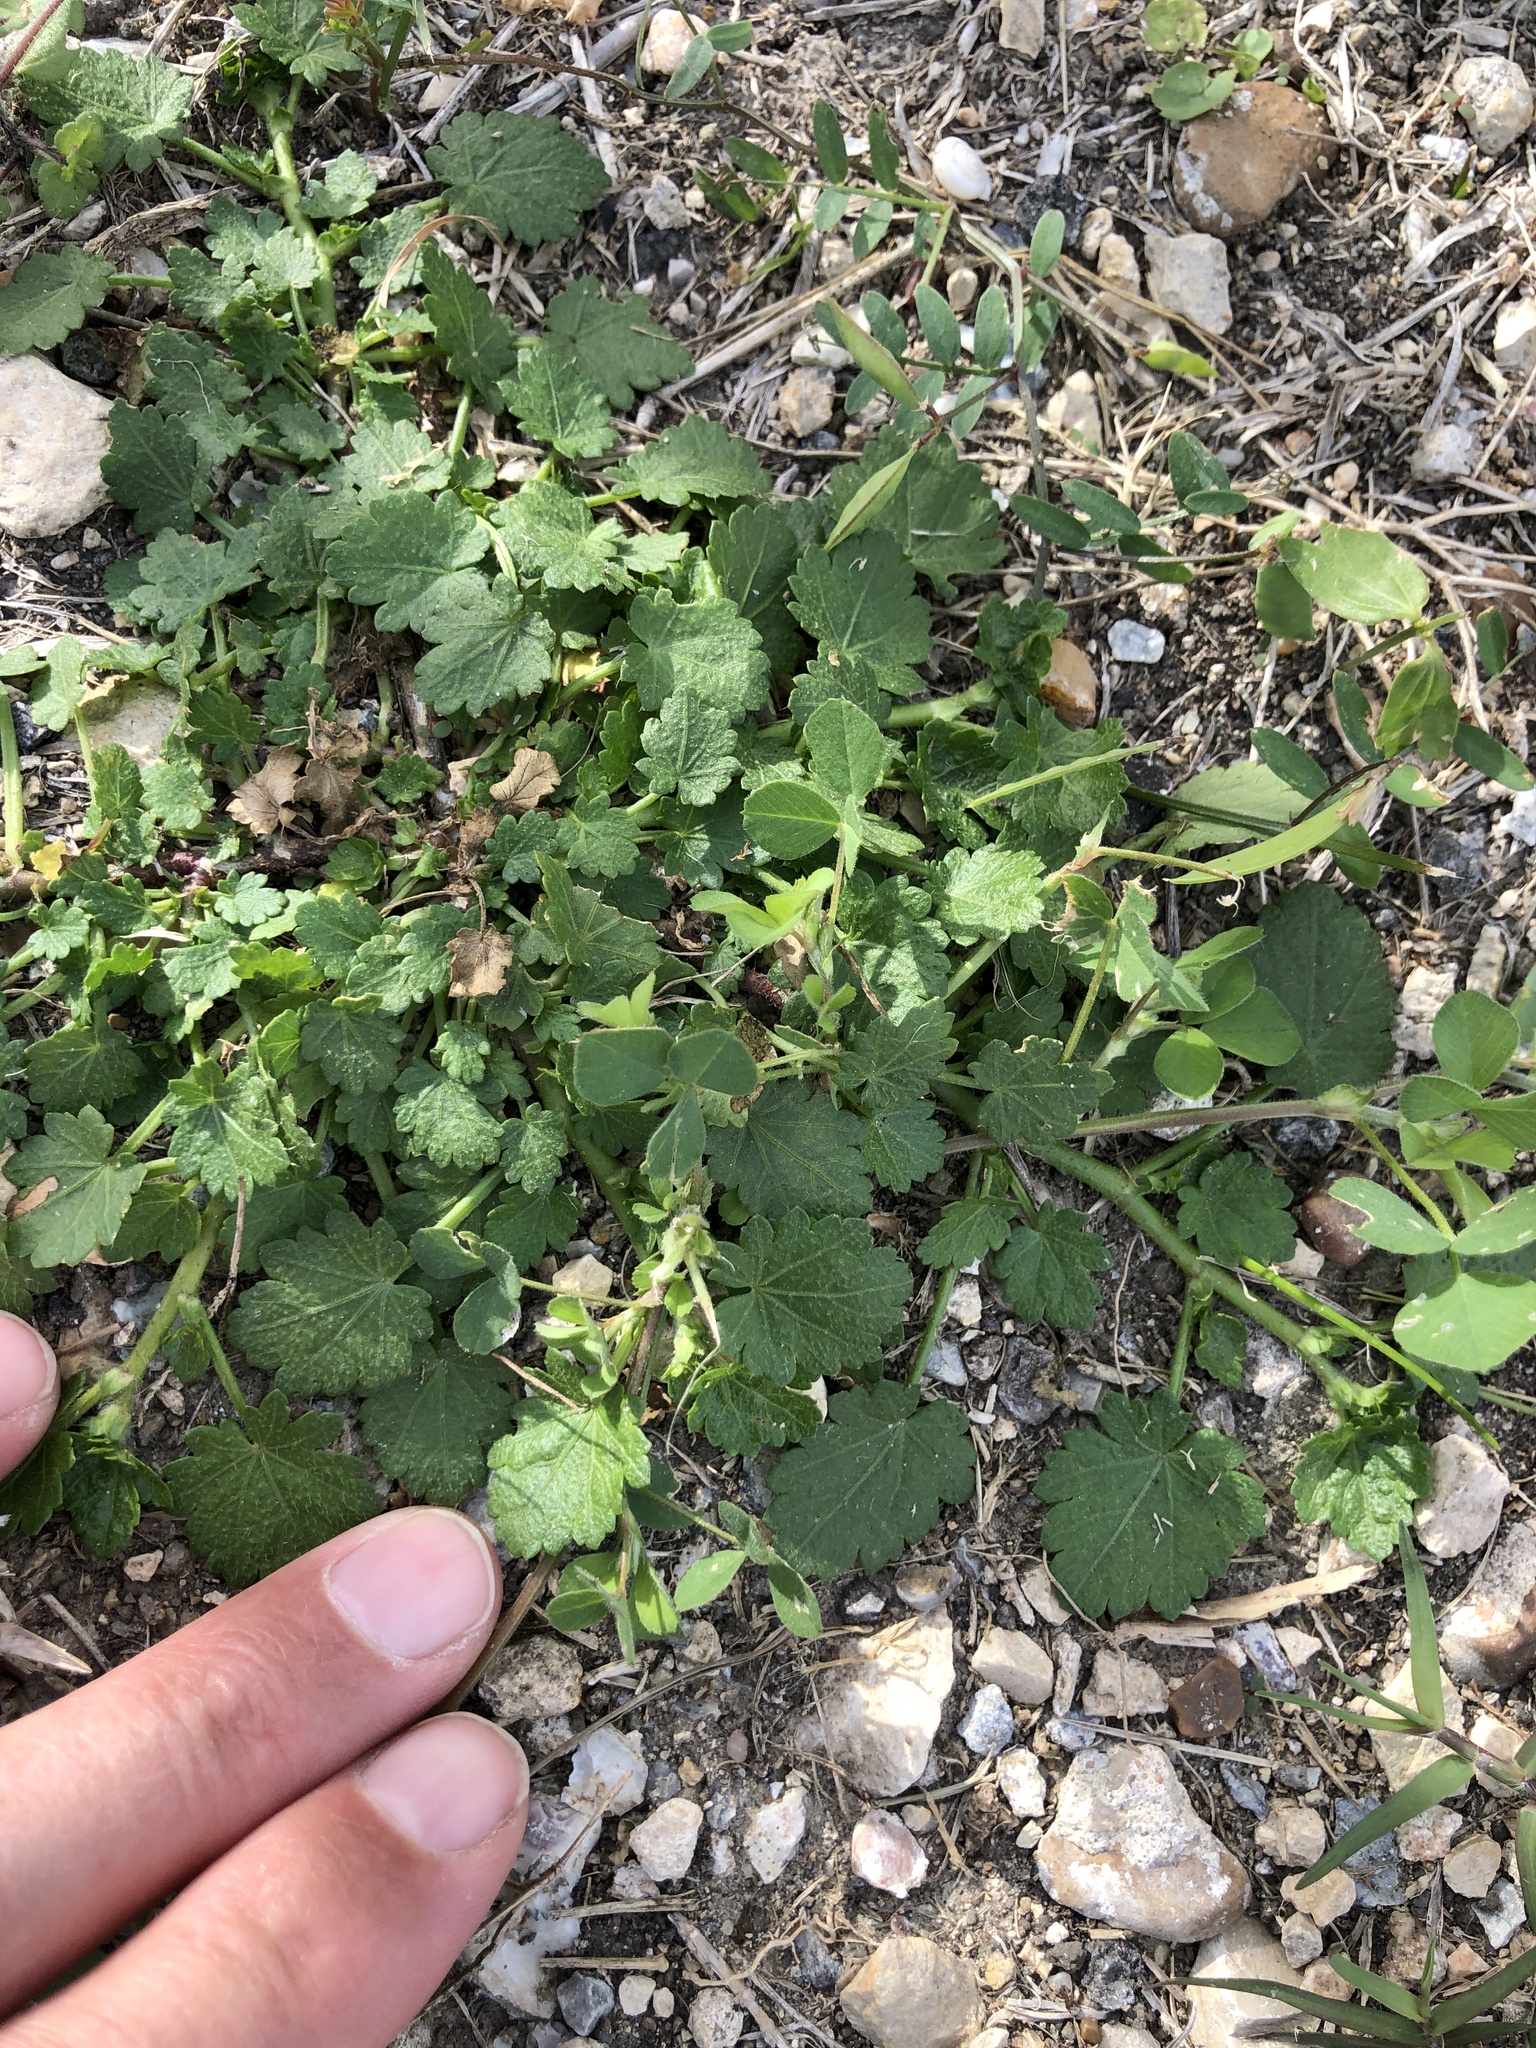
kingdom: Plantae
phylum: Tracheophyta
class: Magnoliopsida
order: Malvales
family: Malvaceae
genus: Modiola
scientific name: Modiola caroliniana
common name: Carolina bristlemallow
